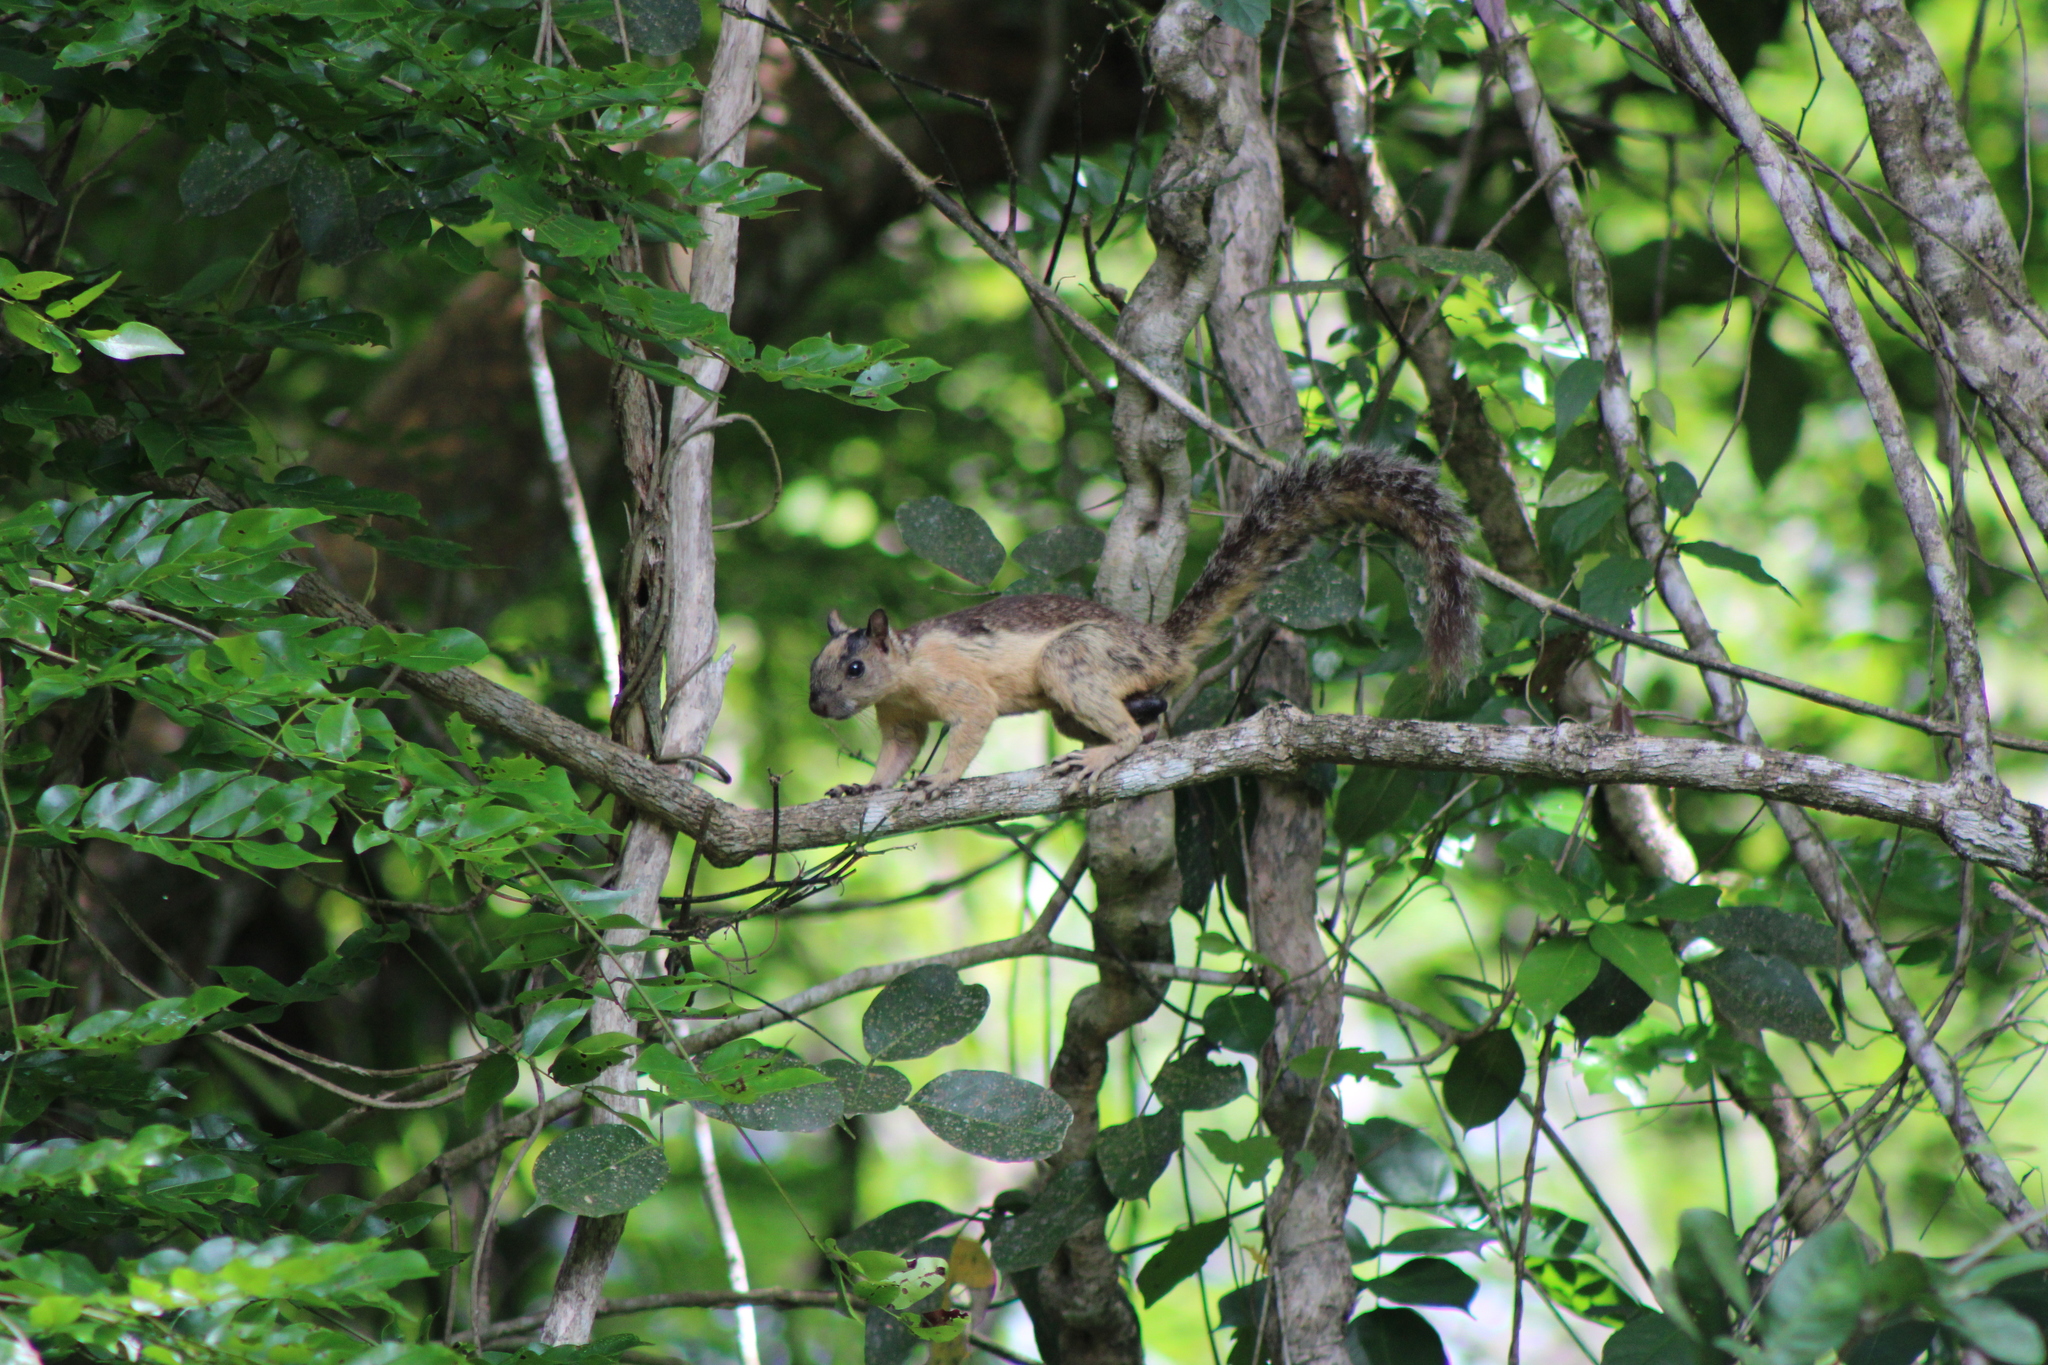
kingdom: Animalia
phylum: Chordata
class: Mammalia
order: Rodentia
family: Sciuridae
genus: Sciurus
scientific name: Sciurus variegatoides
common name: Variegated squirrel
